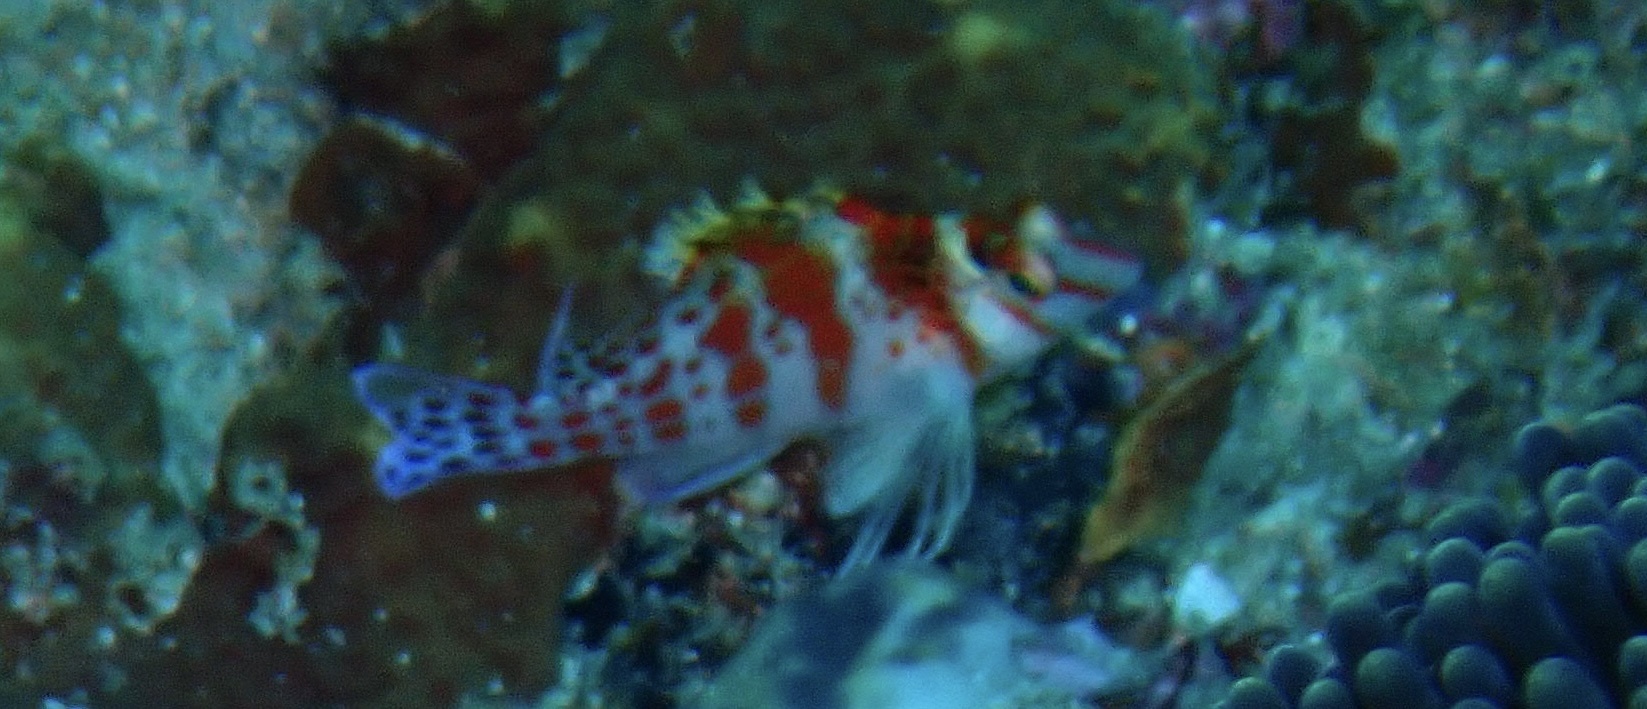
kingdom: Animalia
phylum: Chordata
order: Perciformes
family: Cirrhitidae
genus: Cirrhitichthys
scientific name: Cirrhitichthys falco
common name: Coral hawkfish
